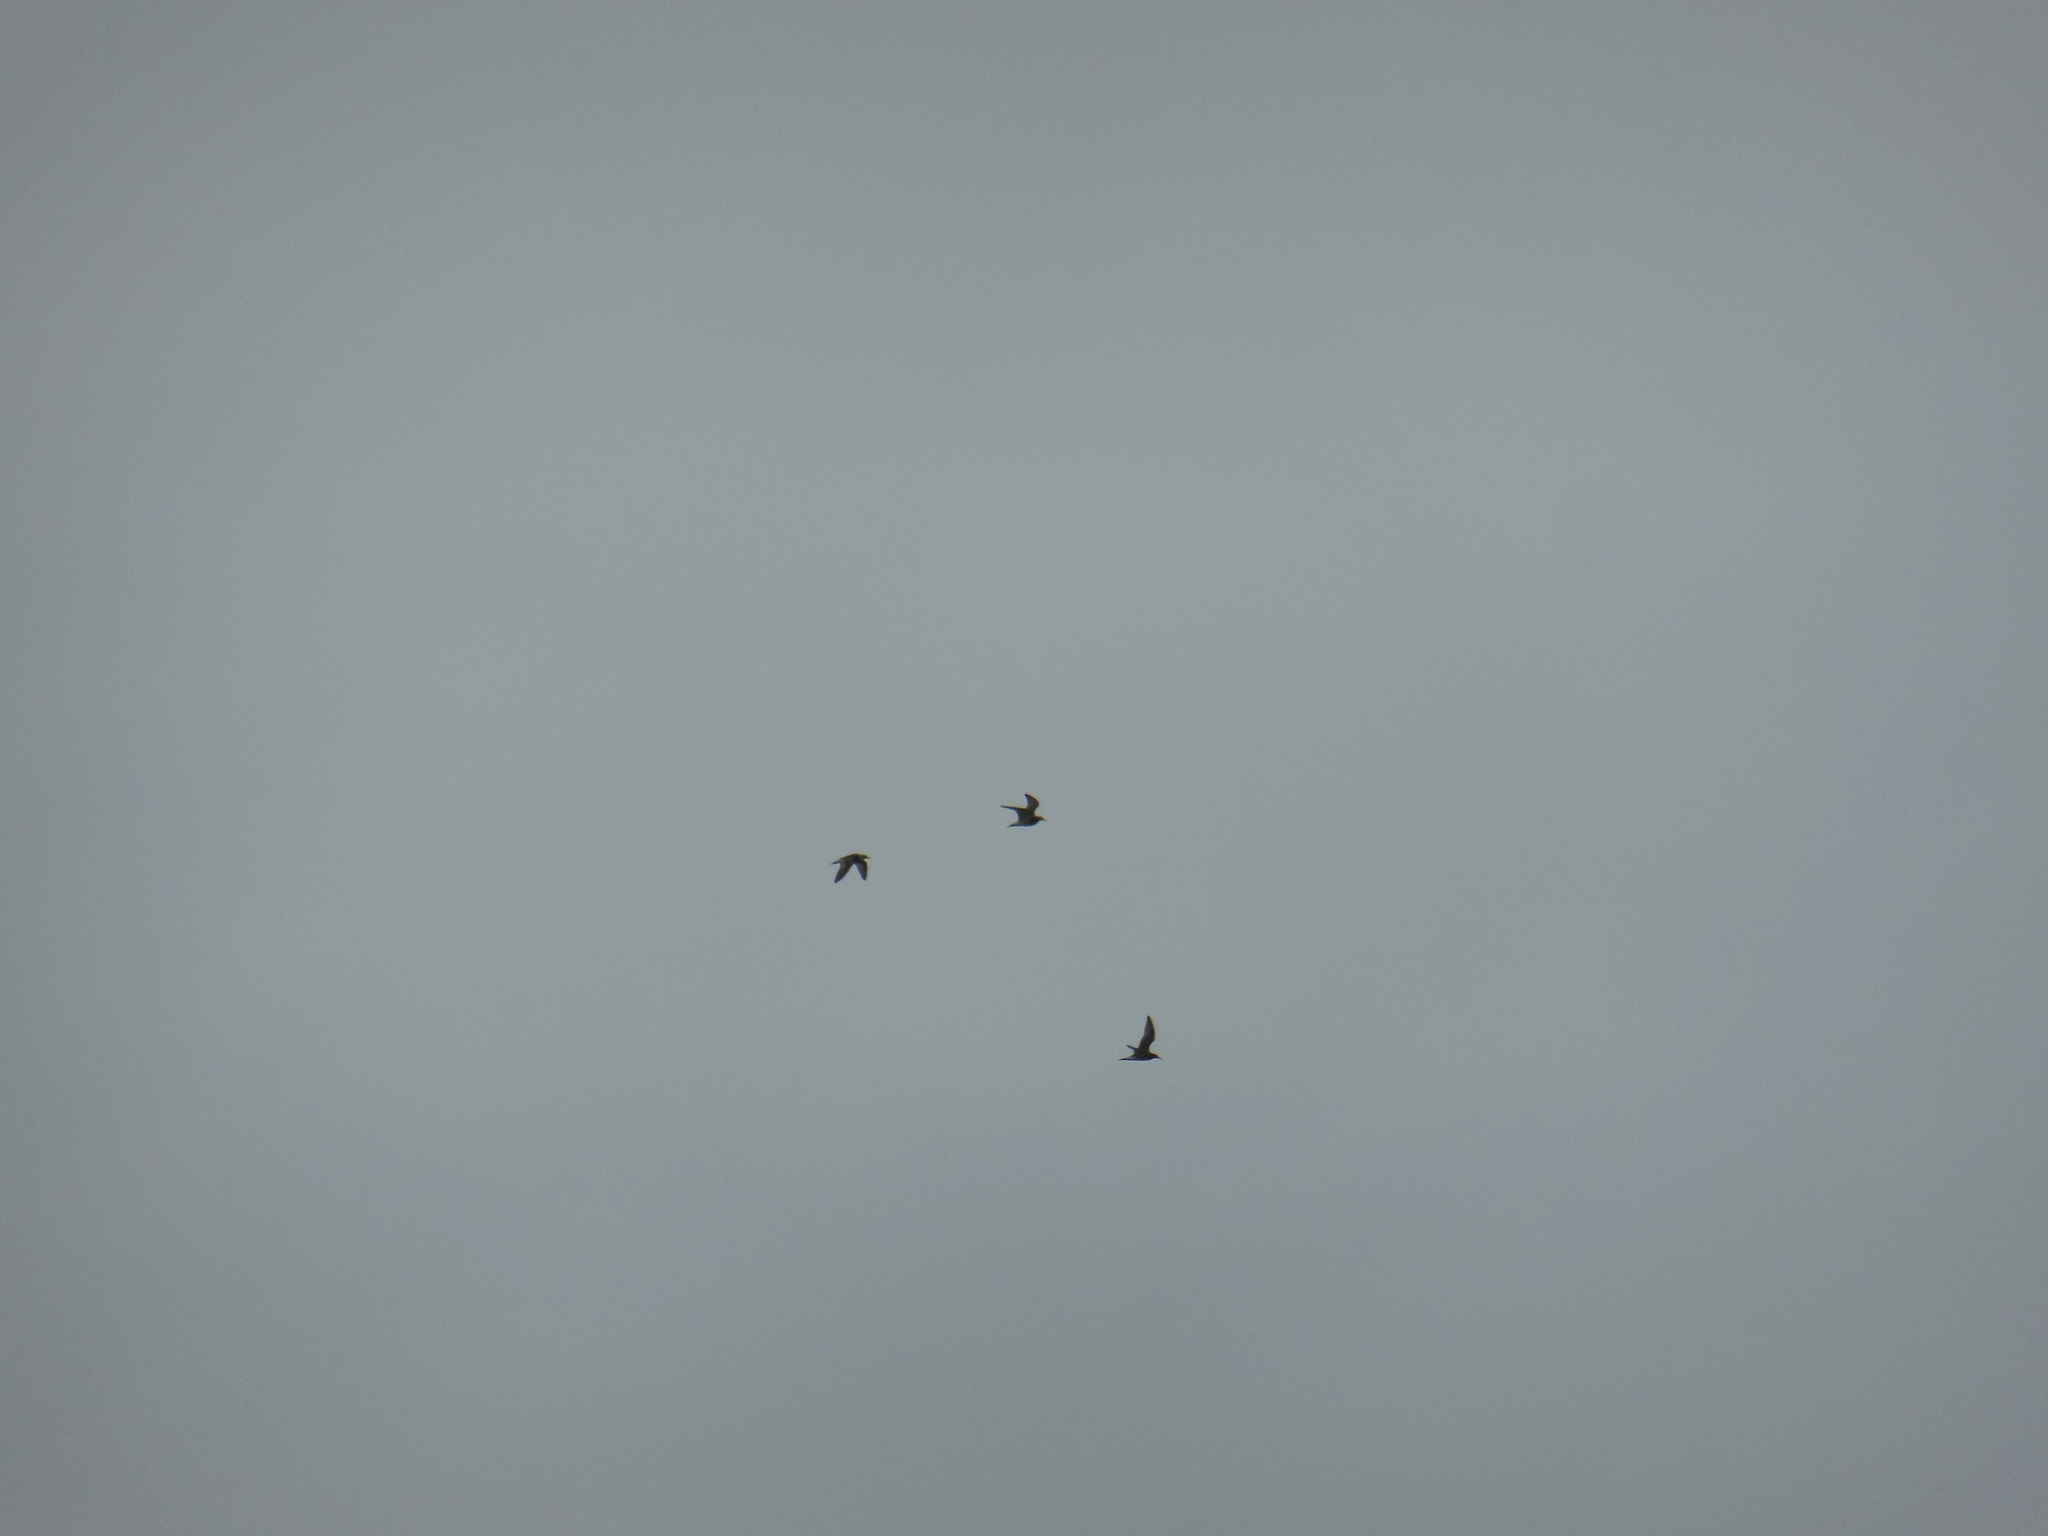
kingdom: Animalia
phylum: Chordata
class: Aves
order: Charadriiformes
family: Scolopacidae
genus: Calidris
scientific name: Calidris pugnax
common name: Ruff
